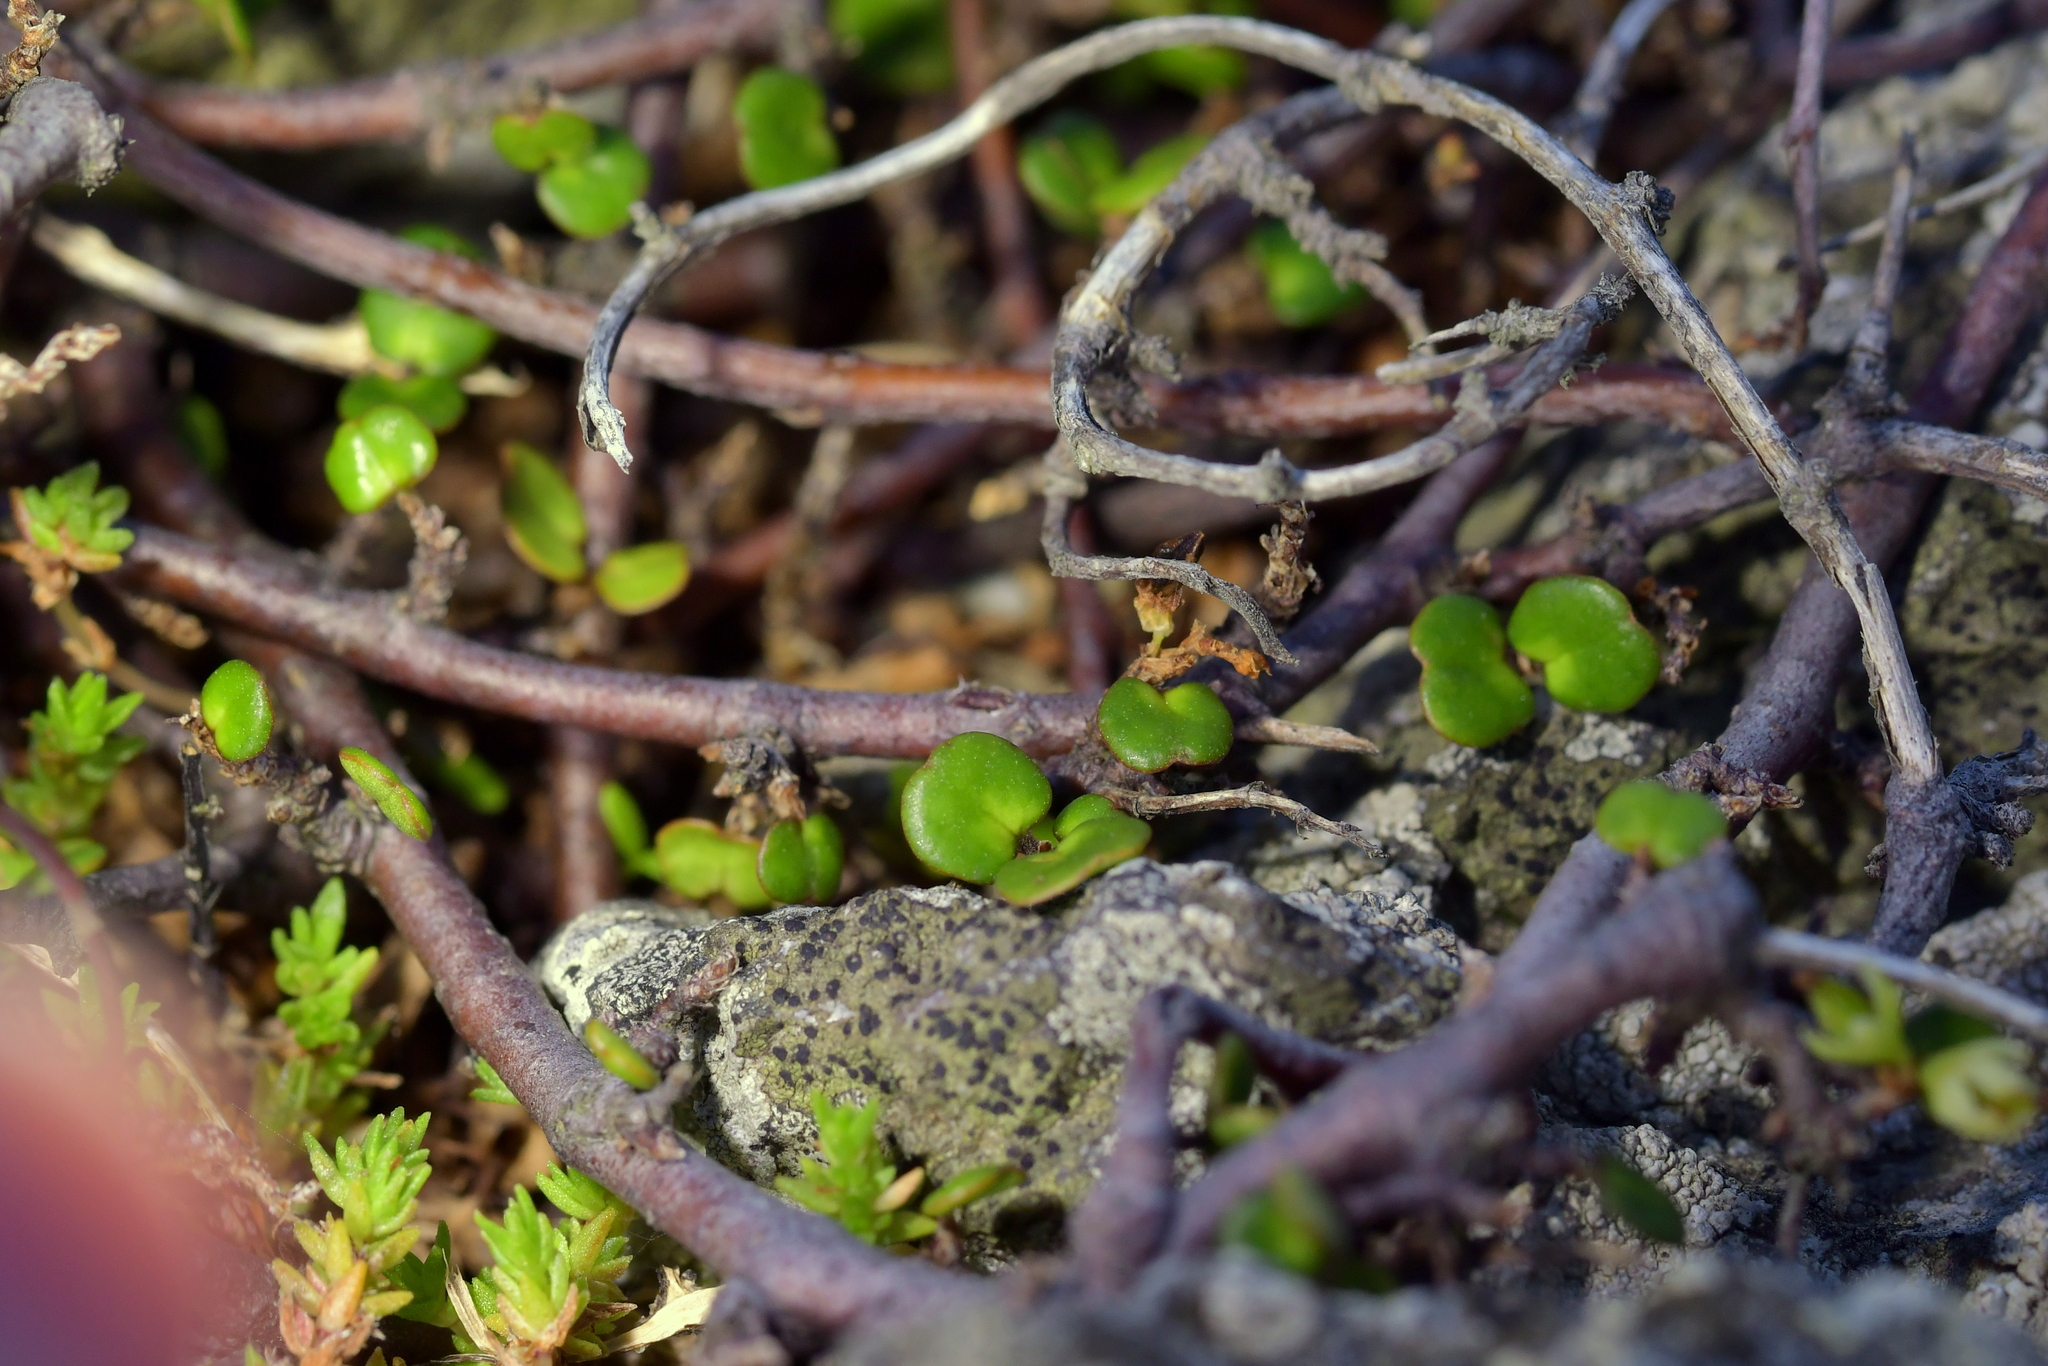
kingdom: Plantae
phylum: Tracheophyta
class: Magnoliopsida
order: Caryophyllales
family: Polygonaceae
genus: Muehlenbeckia
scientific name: Muehlenbeckia complexa
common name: Wireplant
